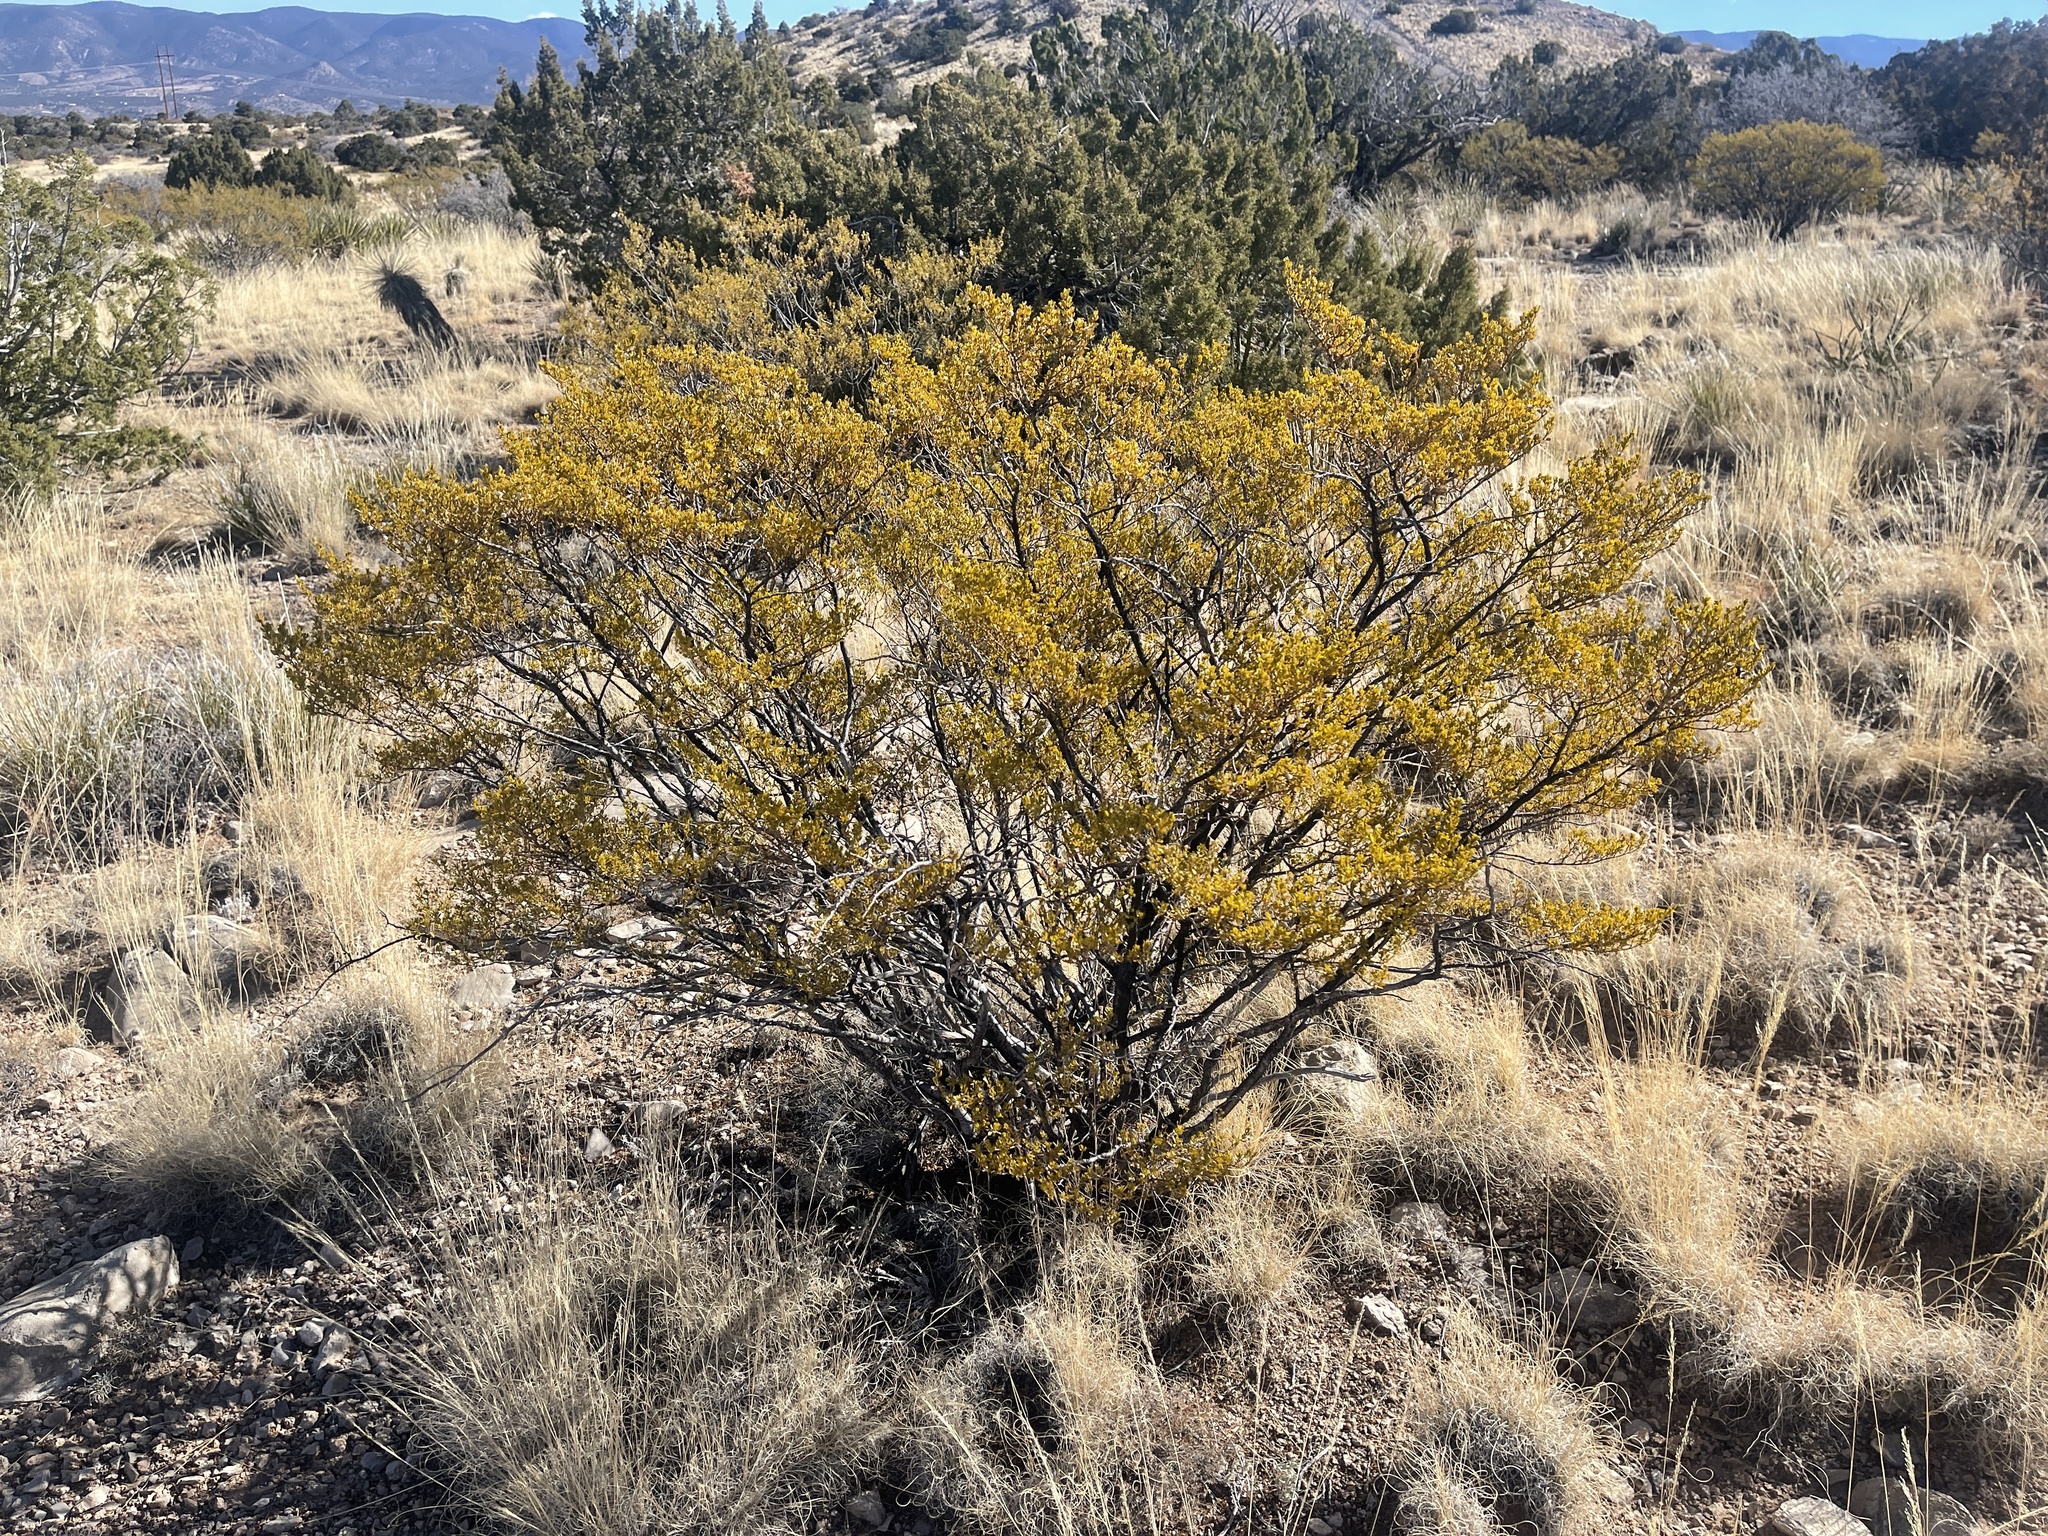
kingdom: Plantae
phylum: Tracheophyta
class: Magnoliopsida
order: Zygophyllales
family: Zygophyllaceae
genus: Larrea
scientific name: Larrea tridentata
